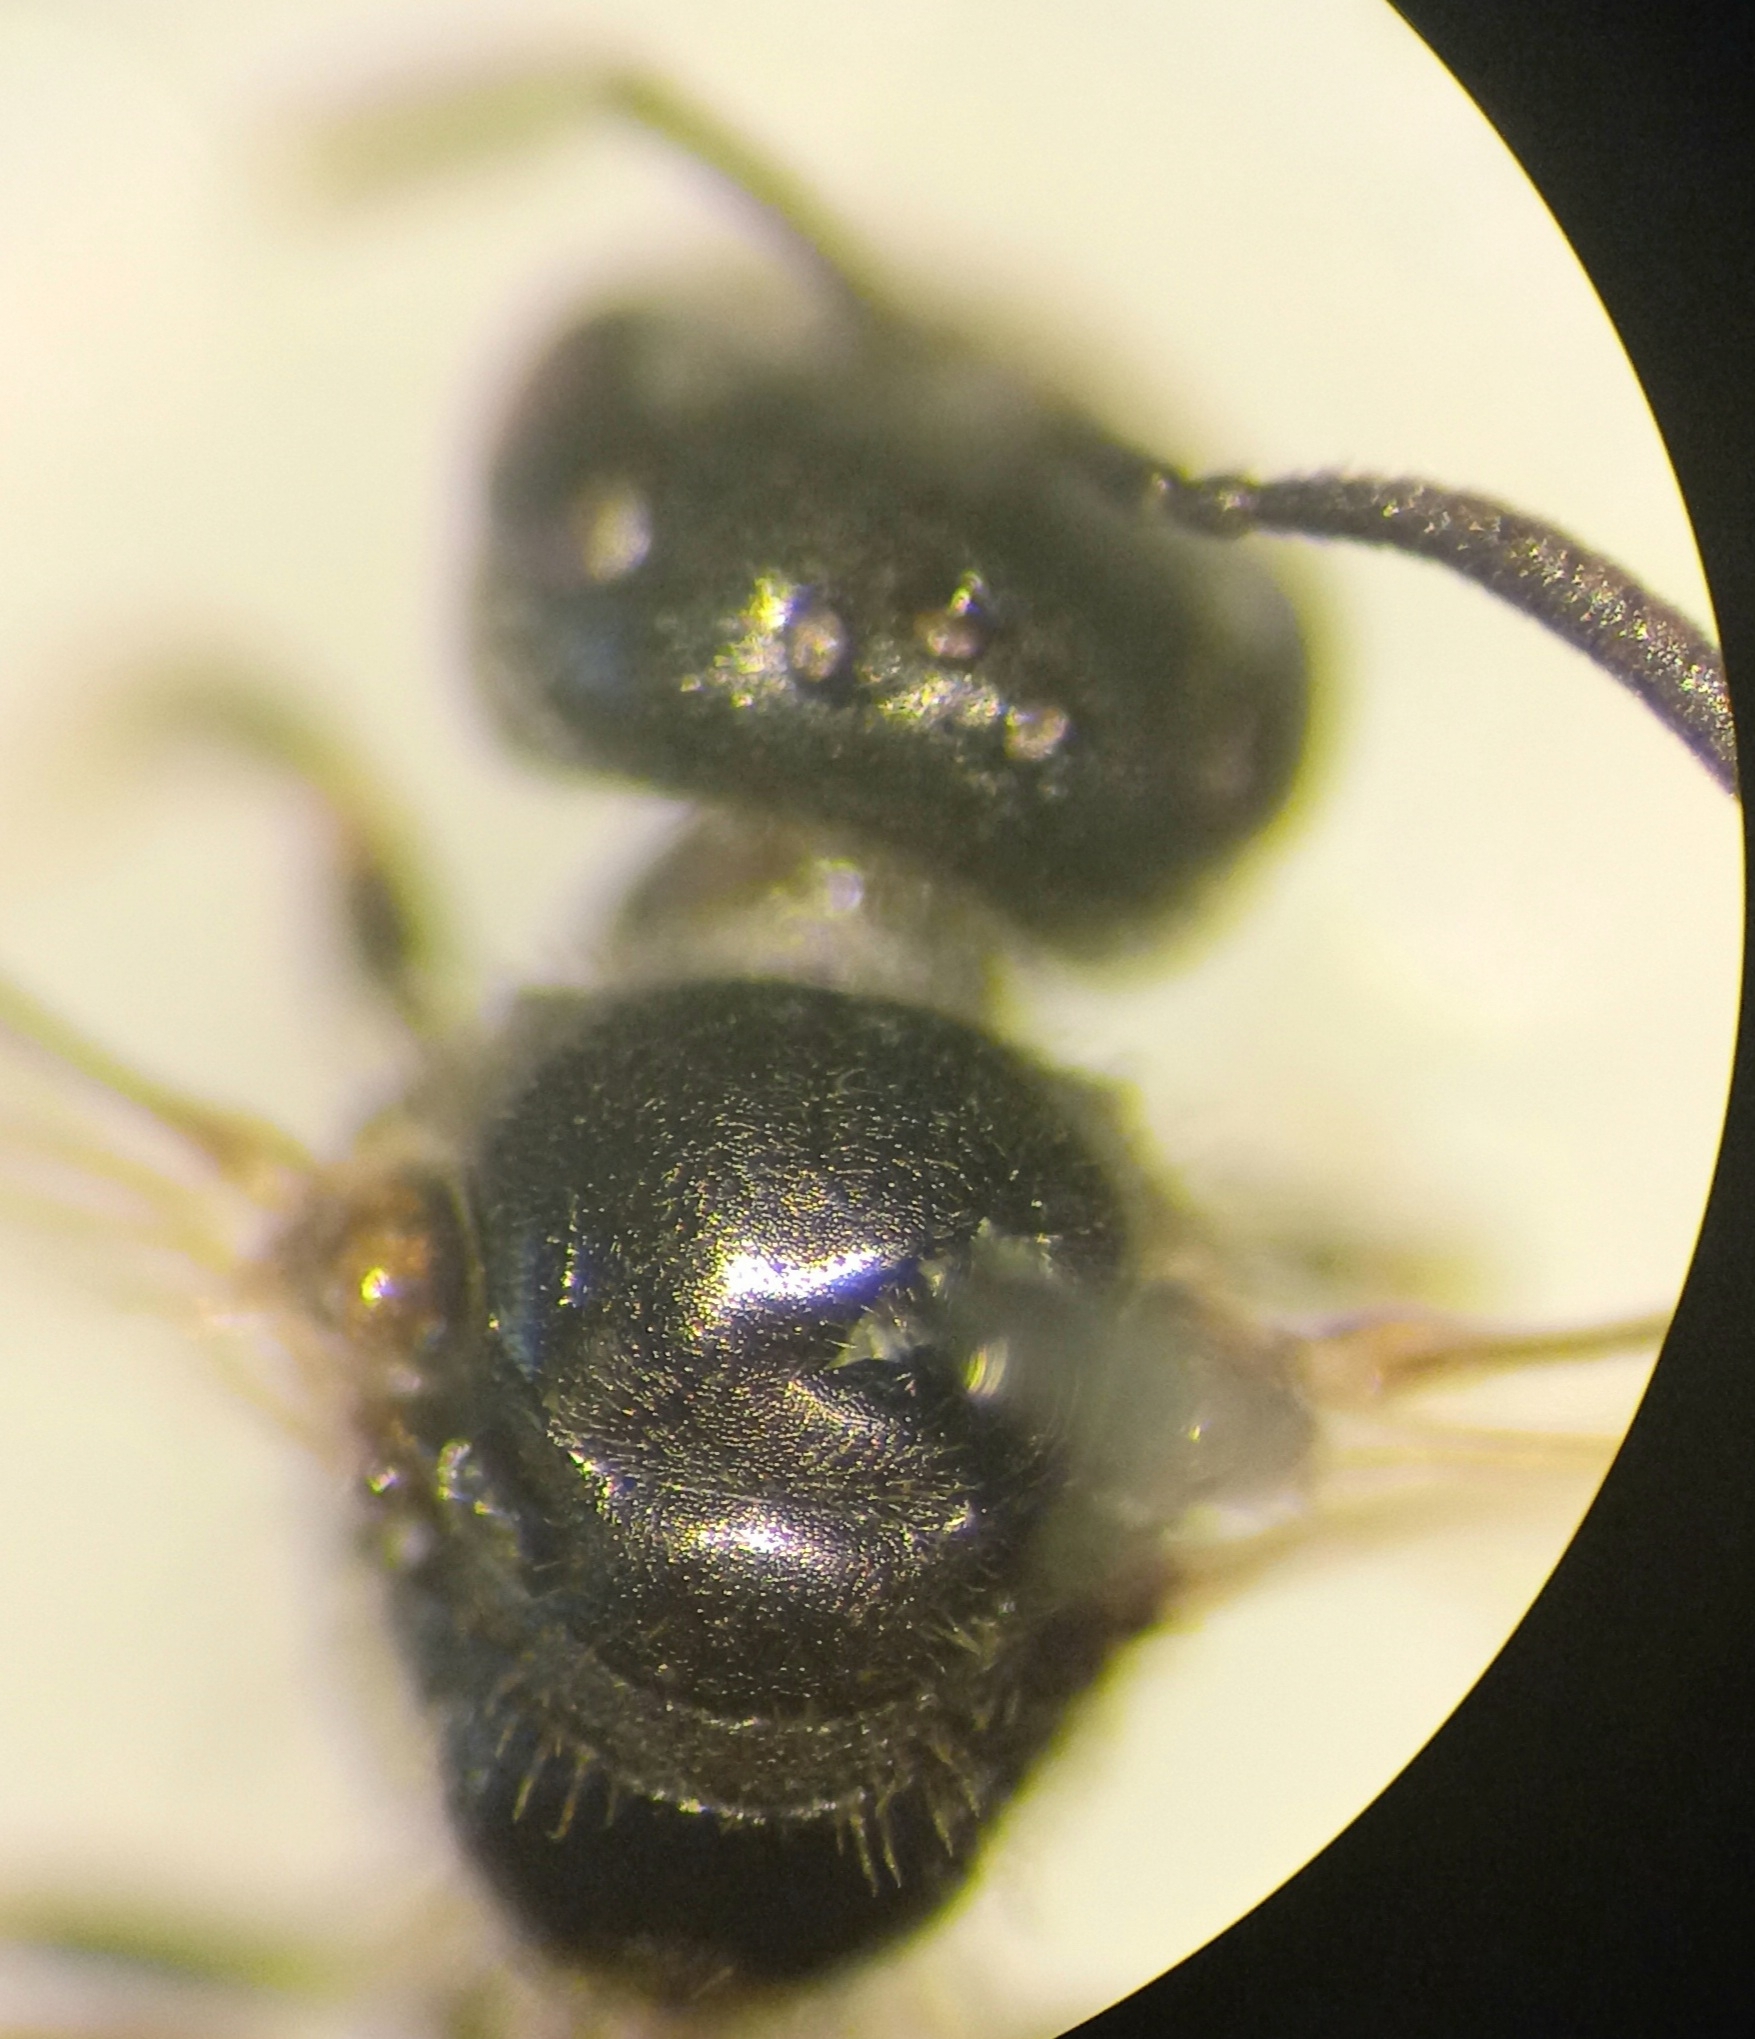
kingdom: Animalia
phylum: Arthropoda
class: Insecta
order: Hymenoptera
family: Halictidae
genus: Lasioglossum
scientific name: Lasioglossum politum
